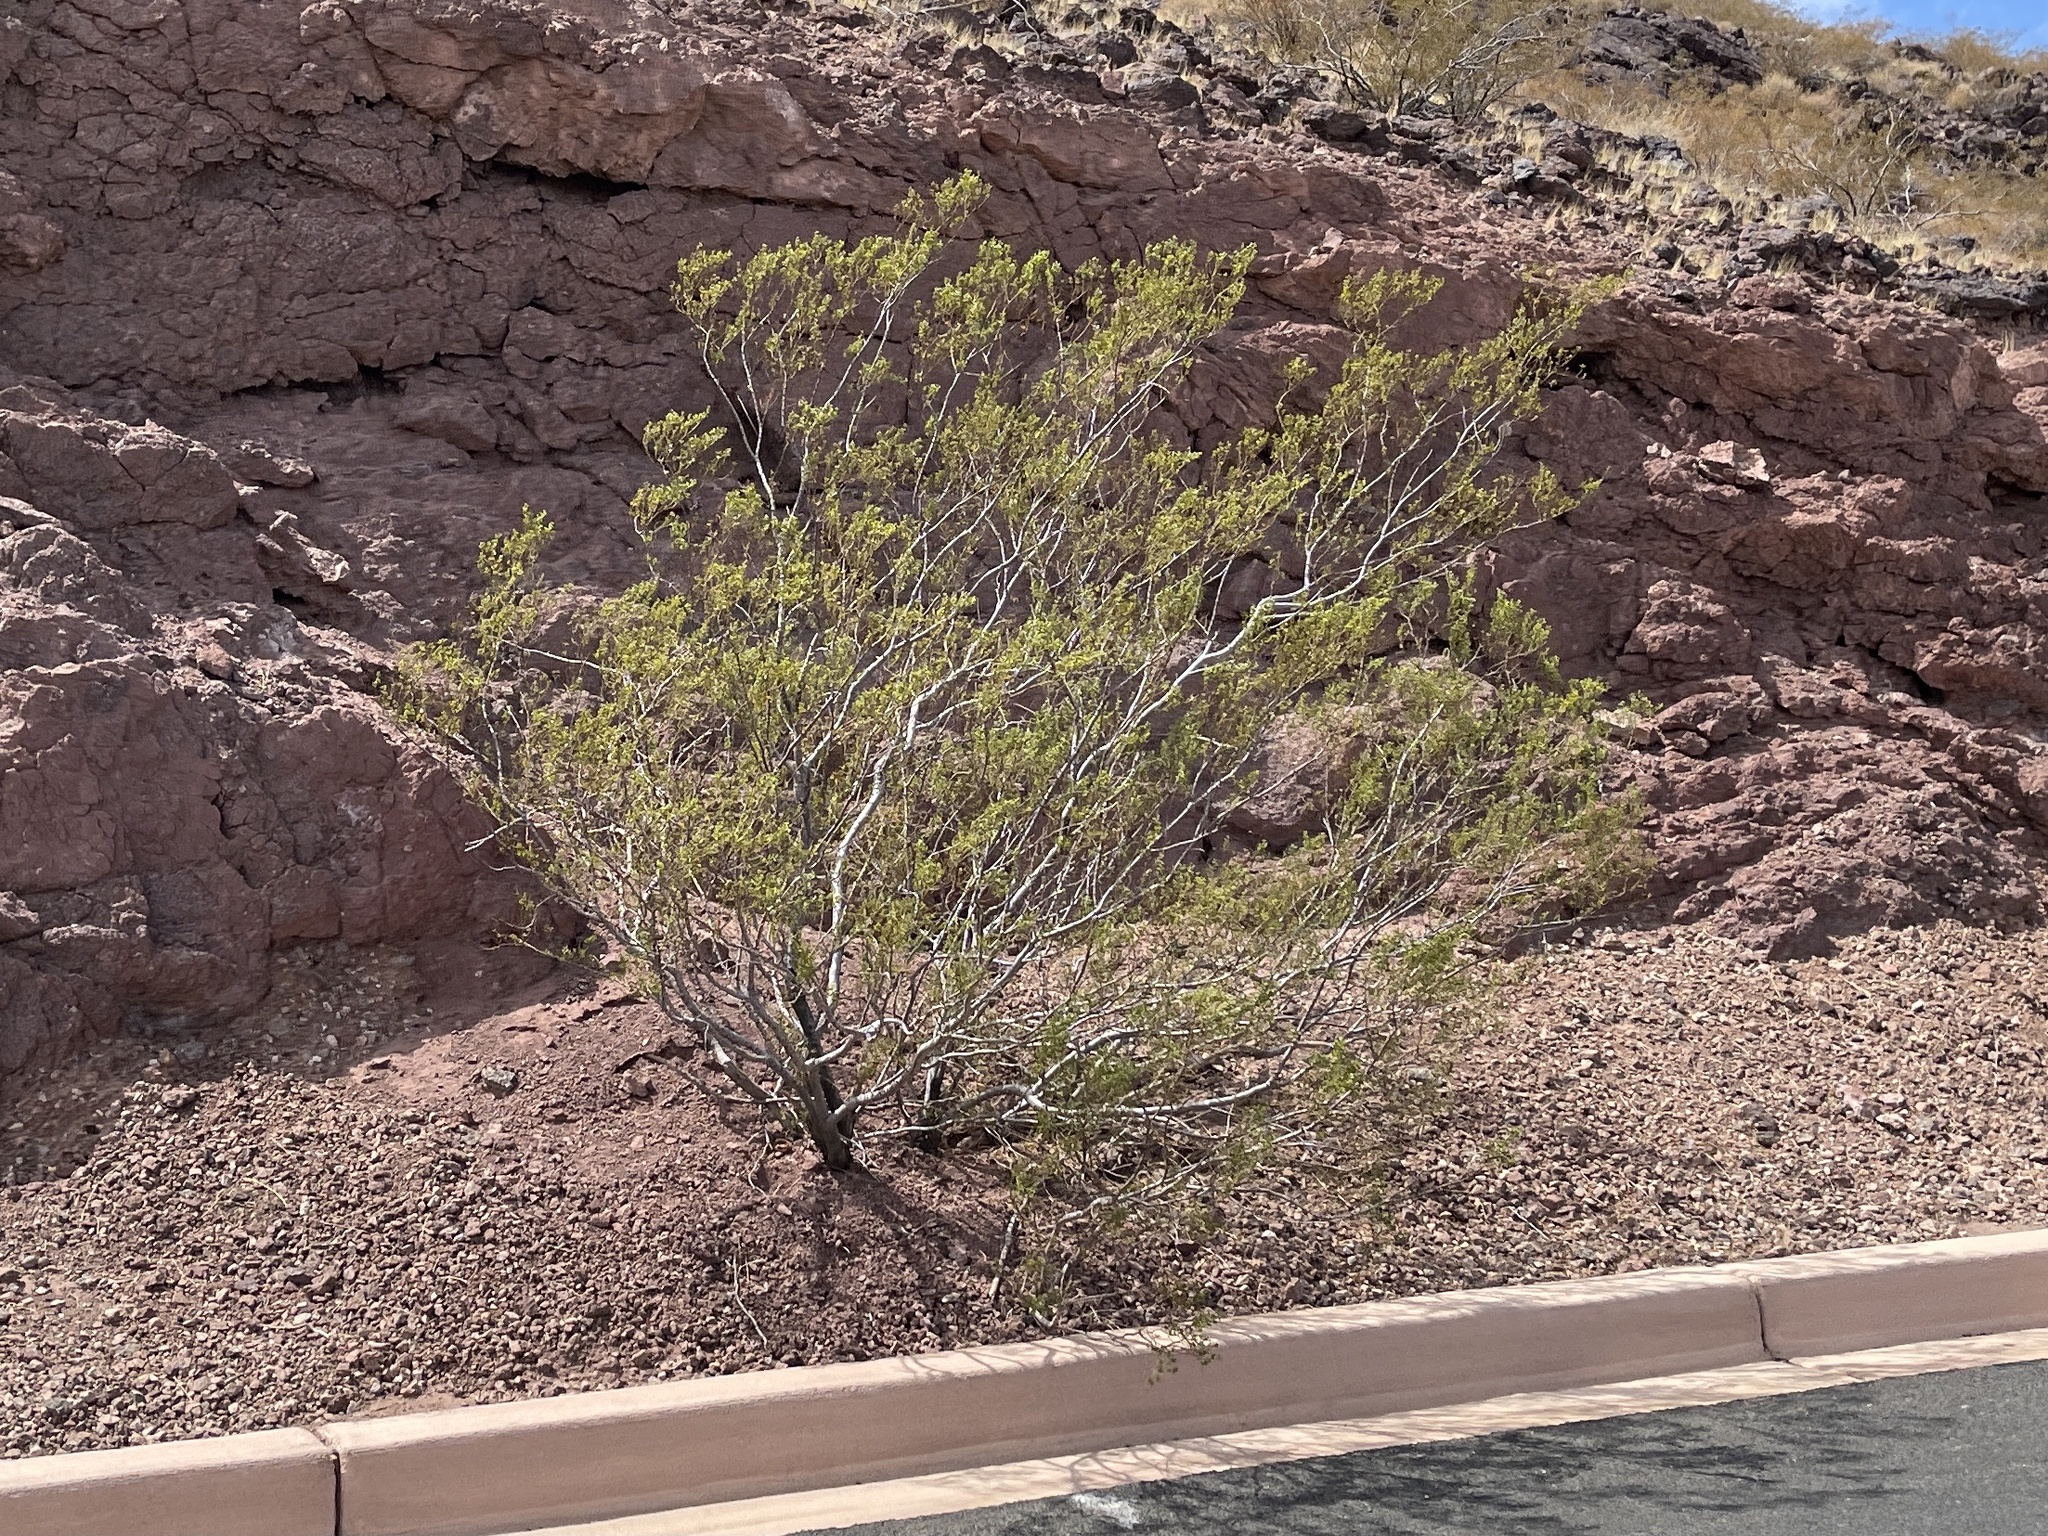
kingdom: Plantae
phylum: Tracheophyta
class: Magnoliopsida
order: Zygophyllales
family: Zygophyllaceae
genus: Larrea
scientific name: Larrea tridentata
